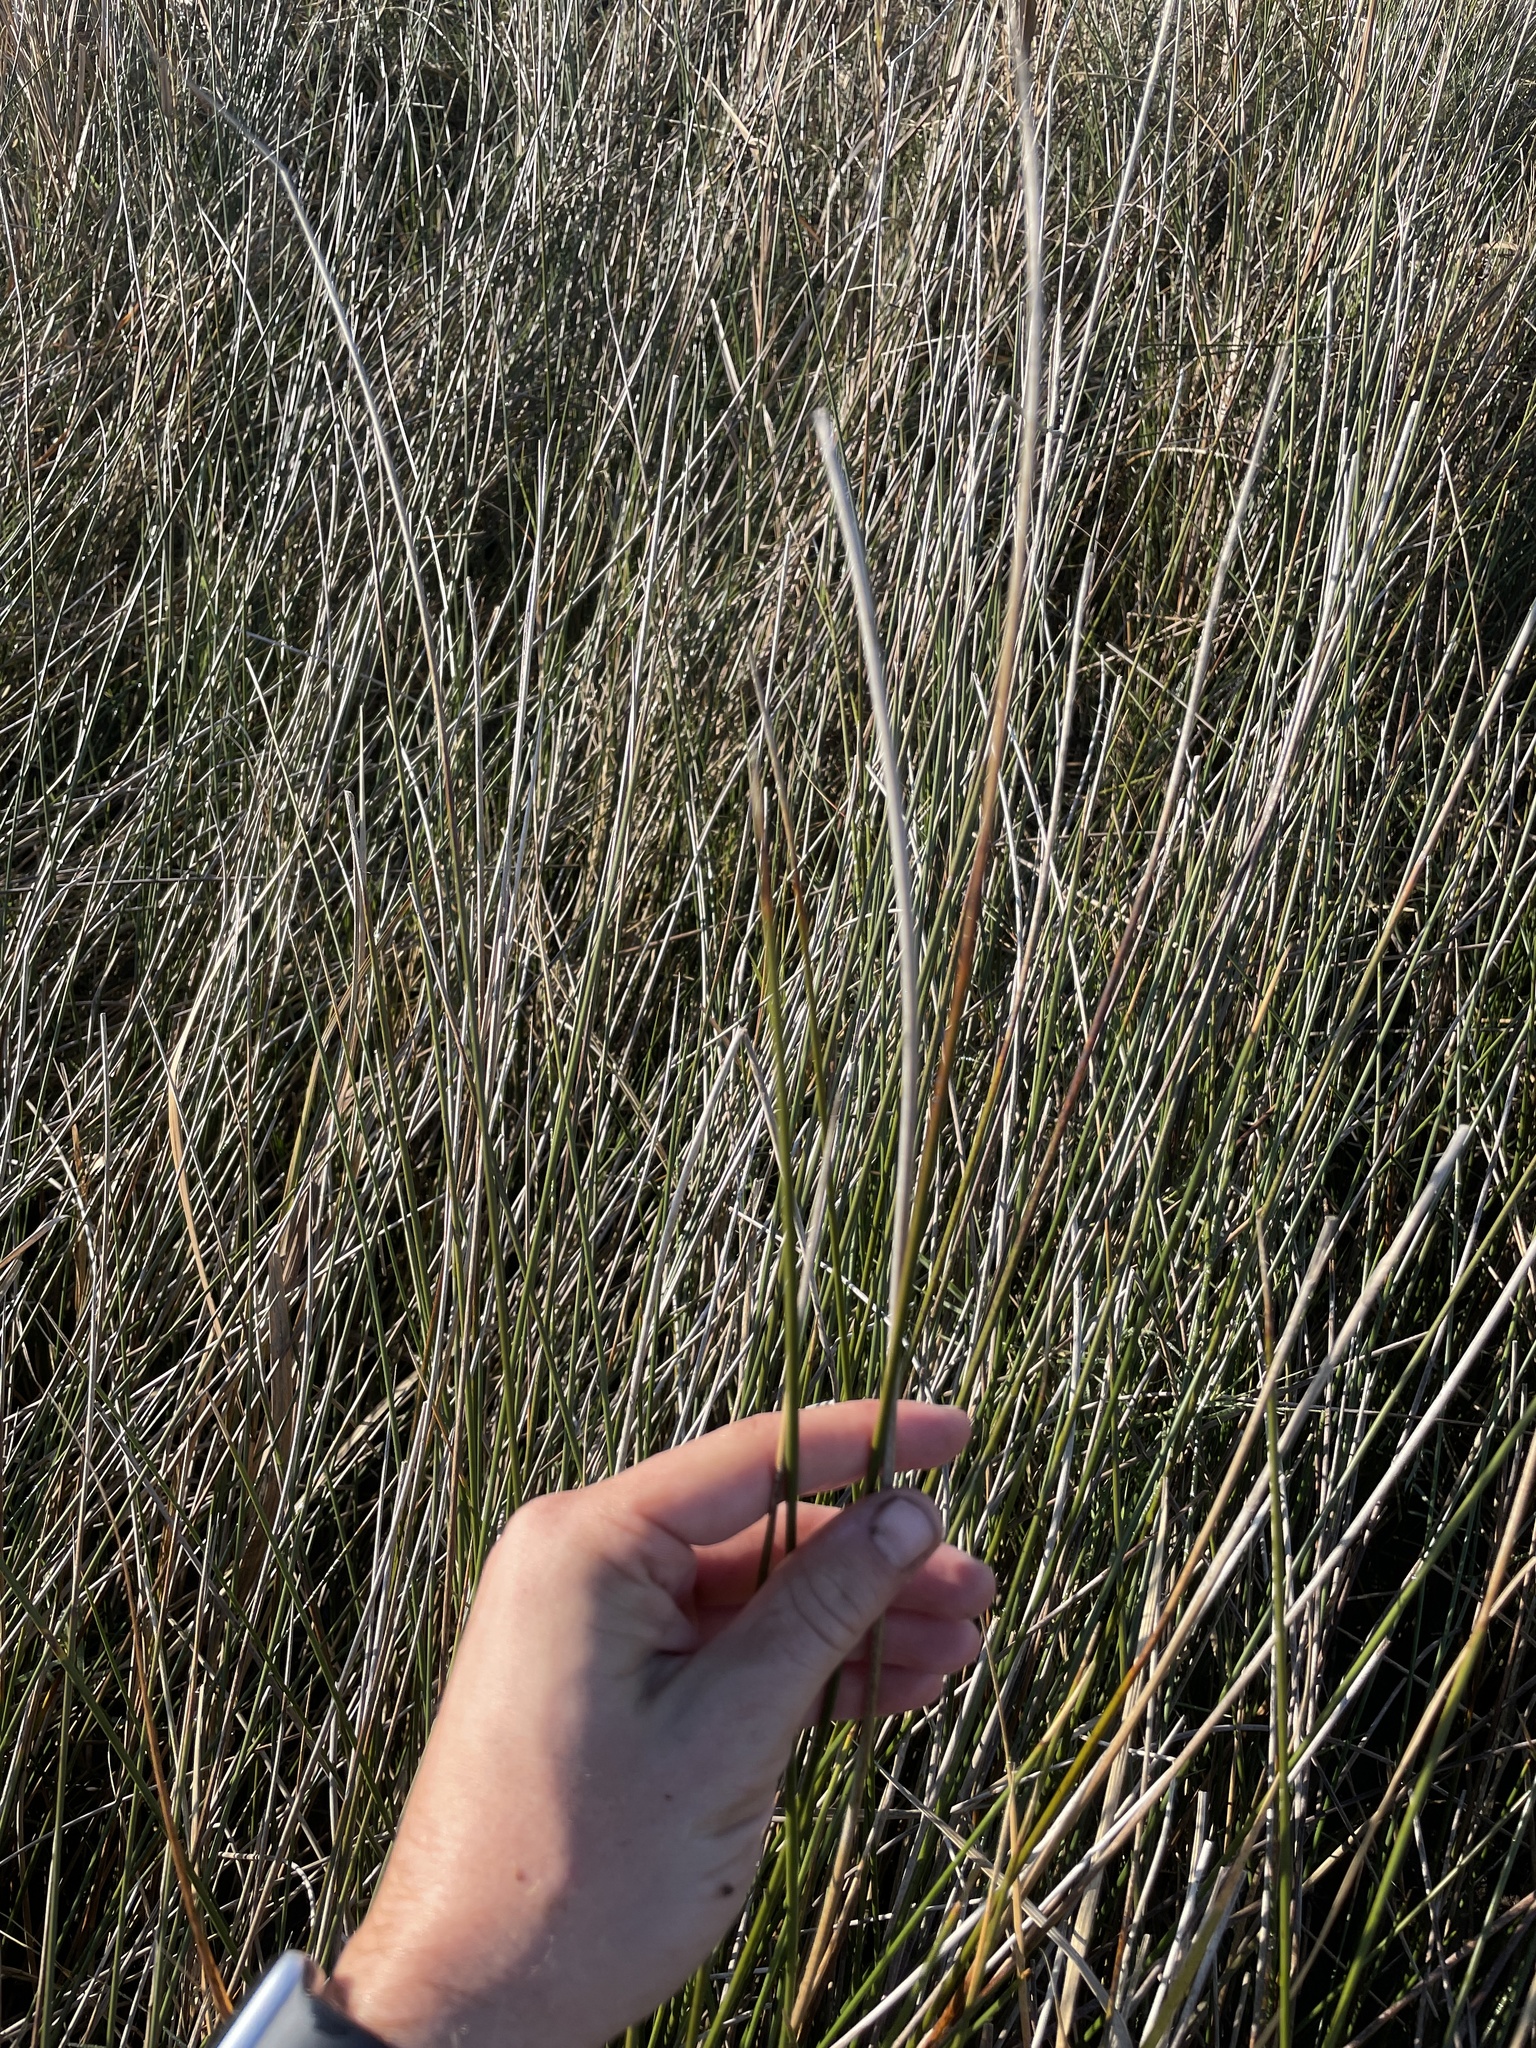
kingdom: Plantae
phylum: Tracheophyta
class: Liliopsida
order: Poales
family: Juncaceae
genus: Juncus
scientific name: Juncus roemerianus
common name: Roemer's rush
